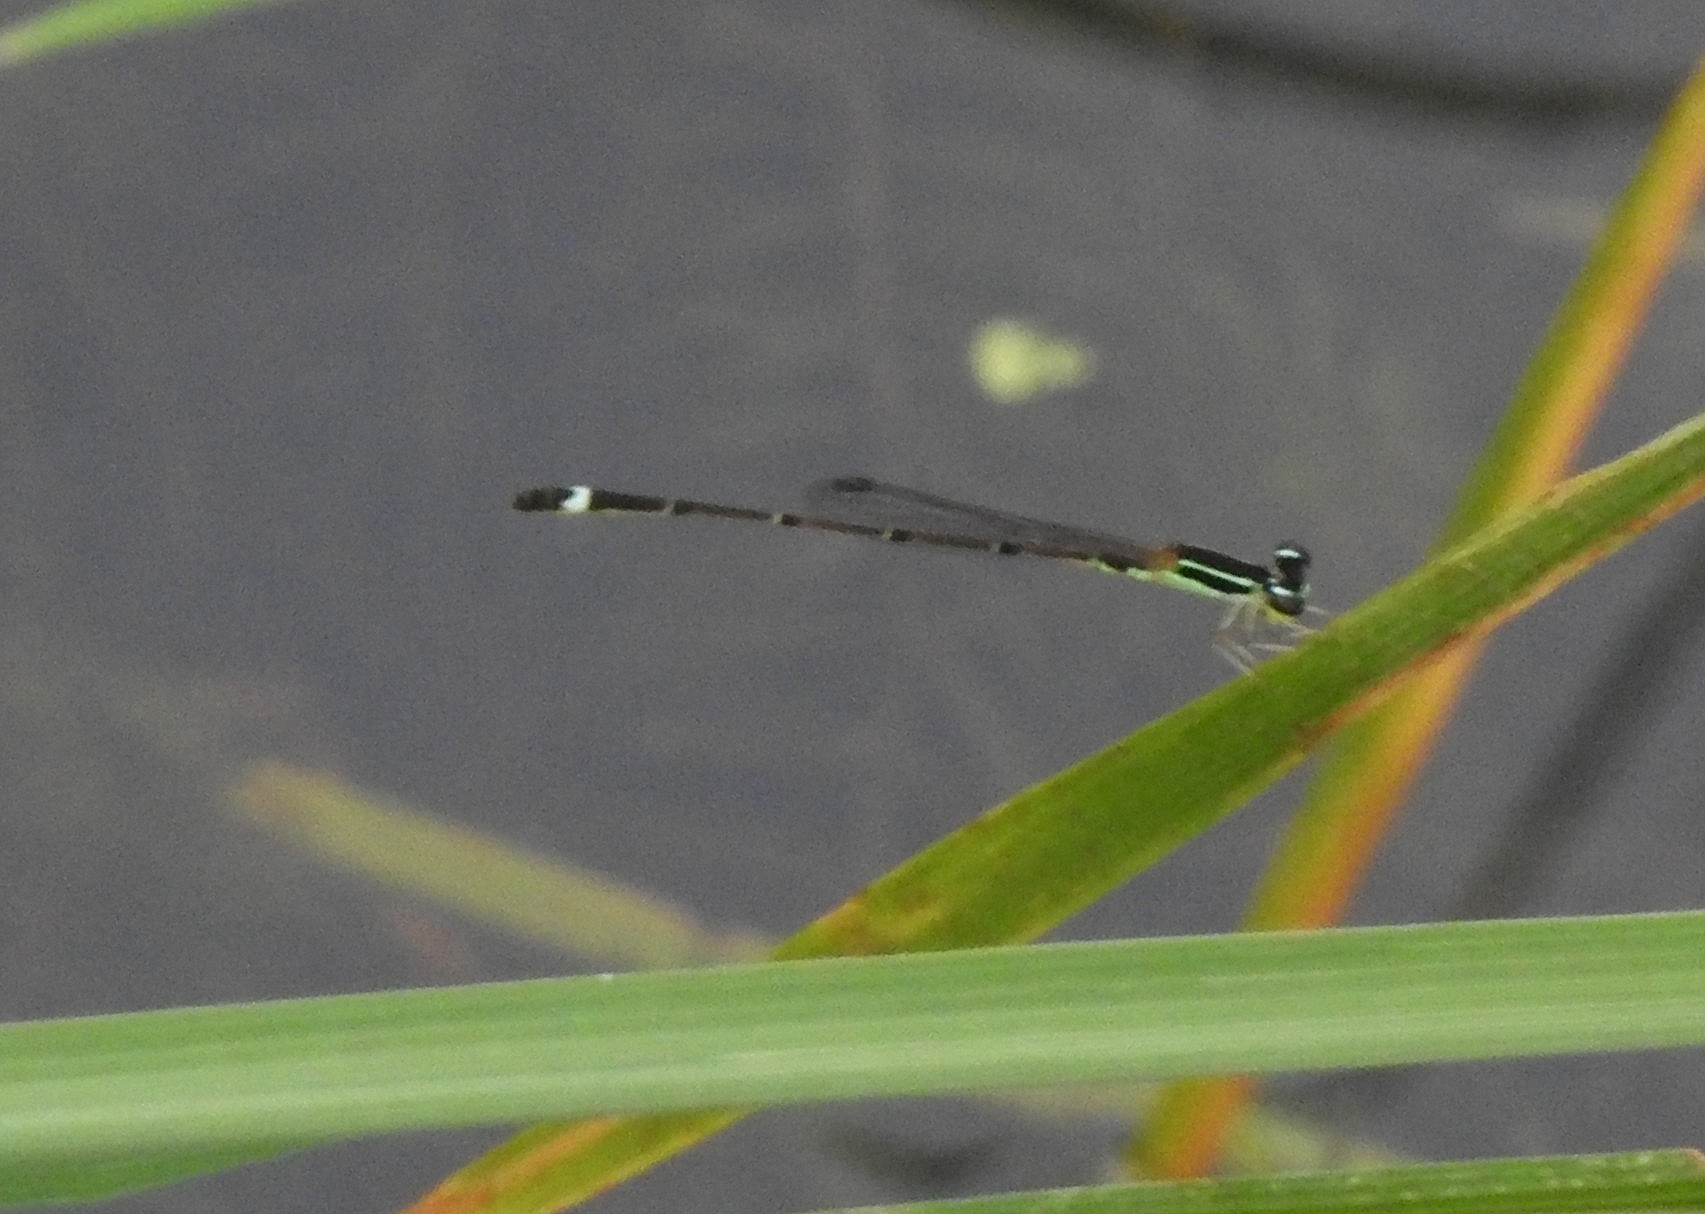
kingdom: Animalia
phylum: Arthropoda
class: Insecta
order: Odonata
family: Coenagrionidae
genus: Mortonagrion
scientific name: Mortonagrion varralli
